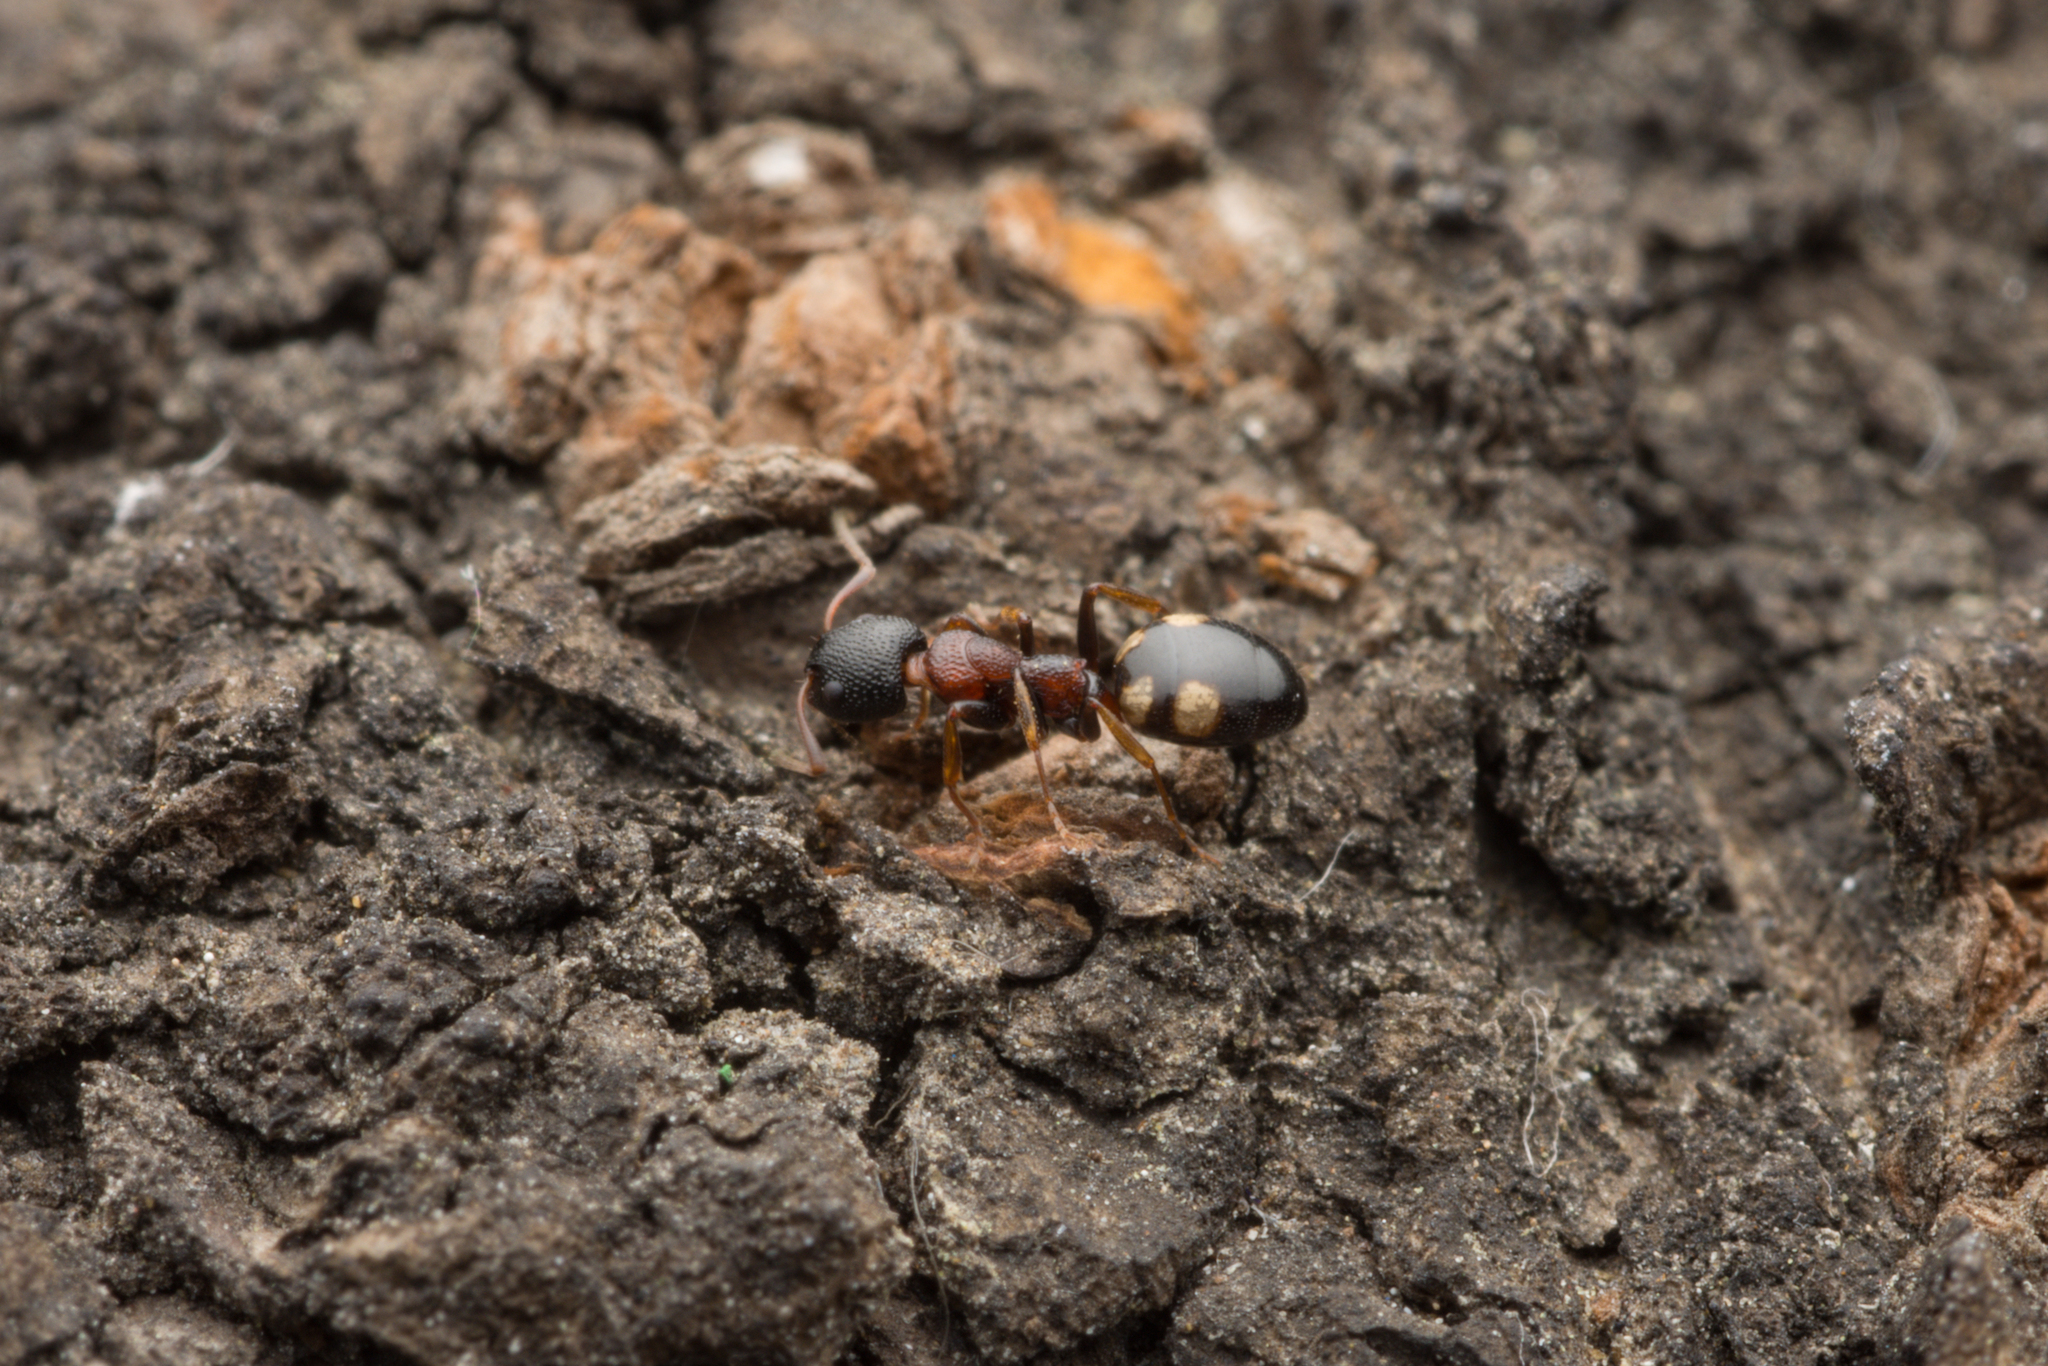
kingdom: Animalia
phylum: Arthropoda
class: Insecta
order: Hymenoptera
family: Formicidae
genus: Dolichoderus
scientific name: Dolichoderus sibiricus
